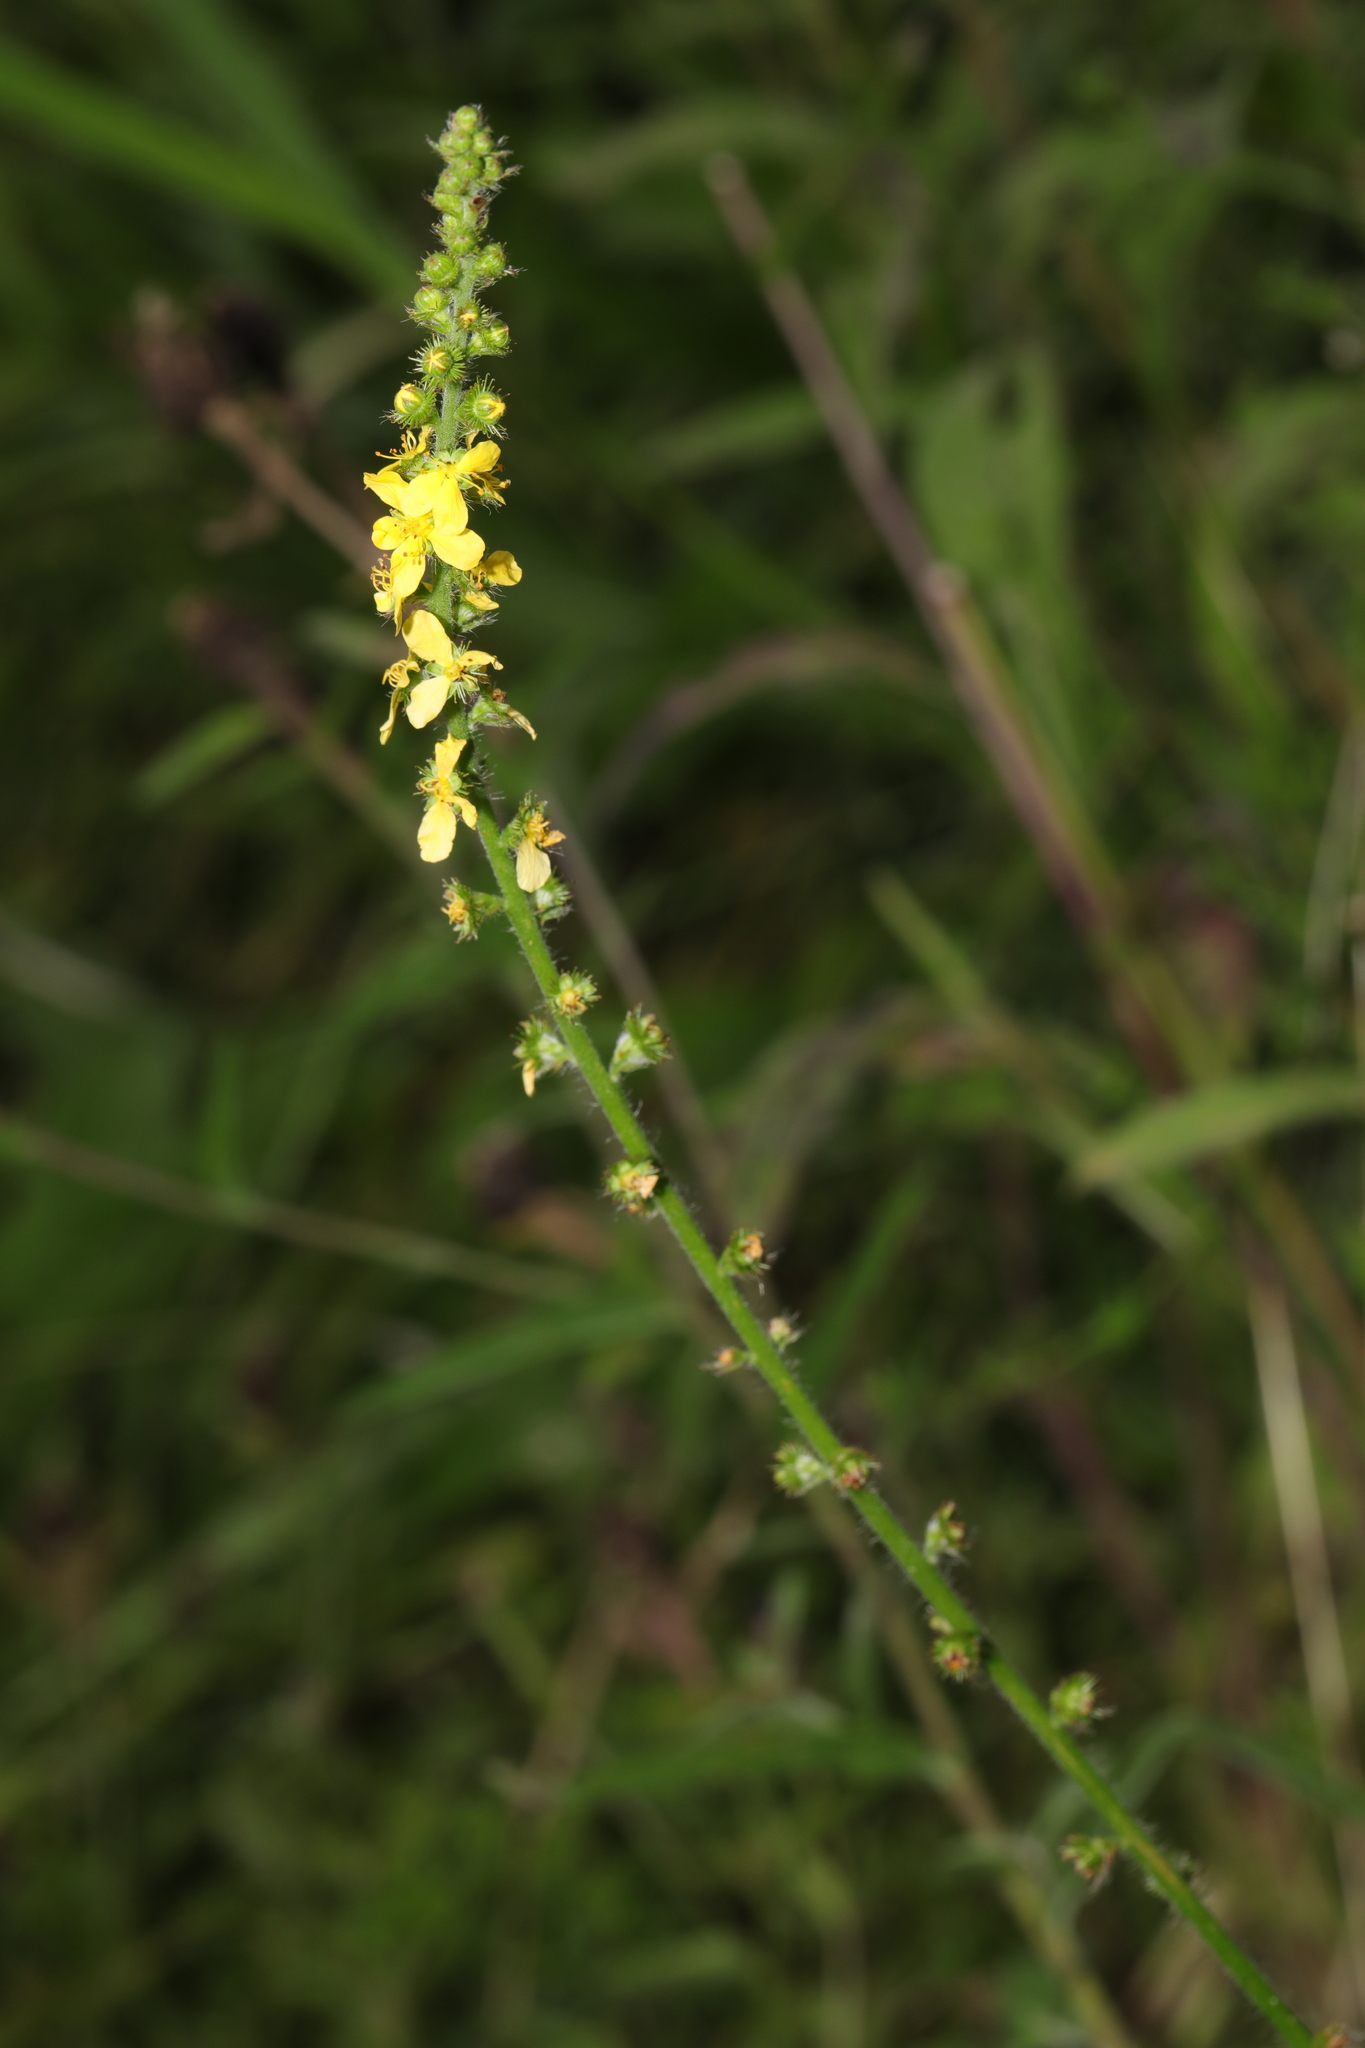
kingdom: Plantae
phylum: Tracheophyta
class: Magnoliopsida
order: Rosales
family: Rosaceae
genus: Agrimonia
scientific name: Agrimonia eupatoria
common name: Agrimony
